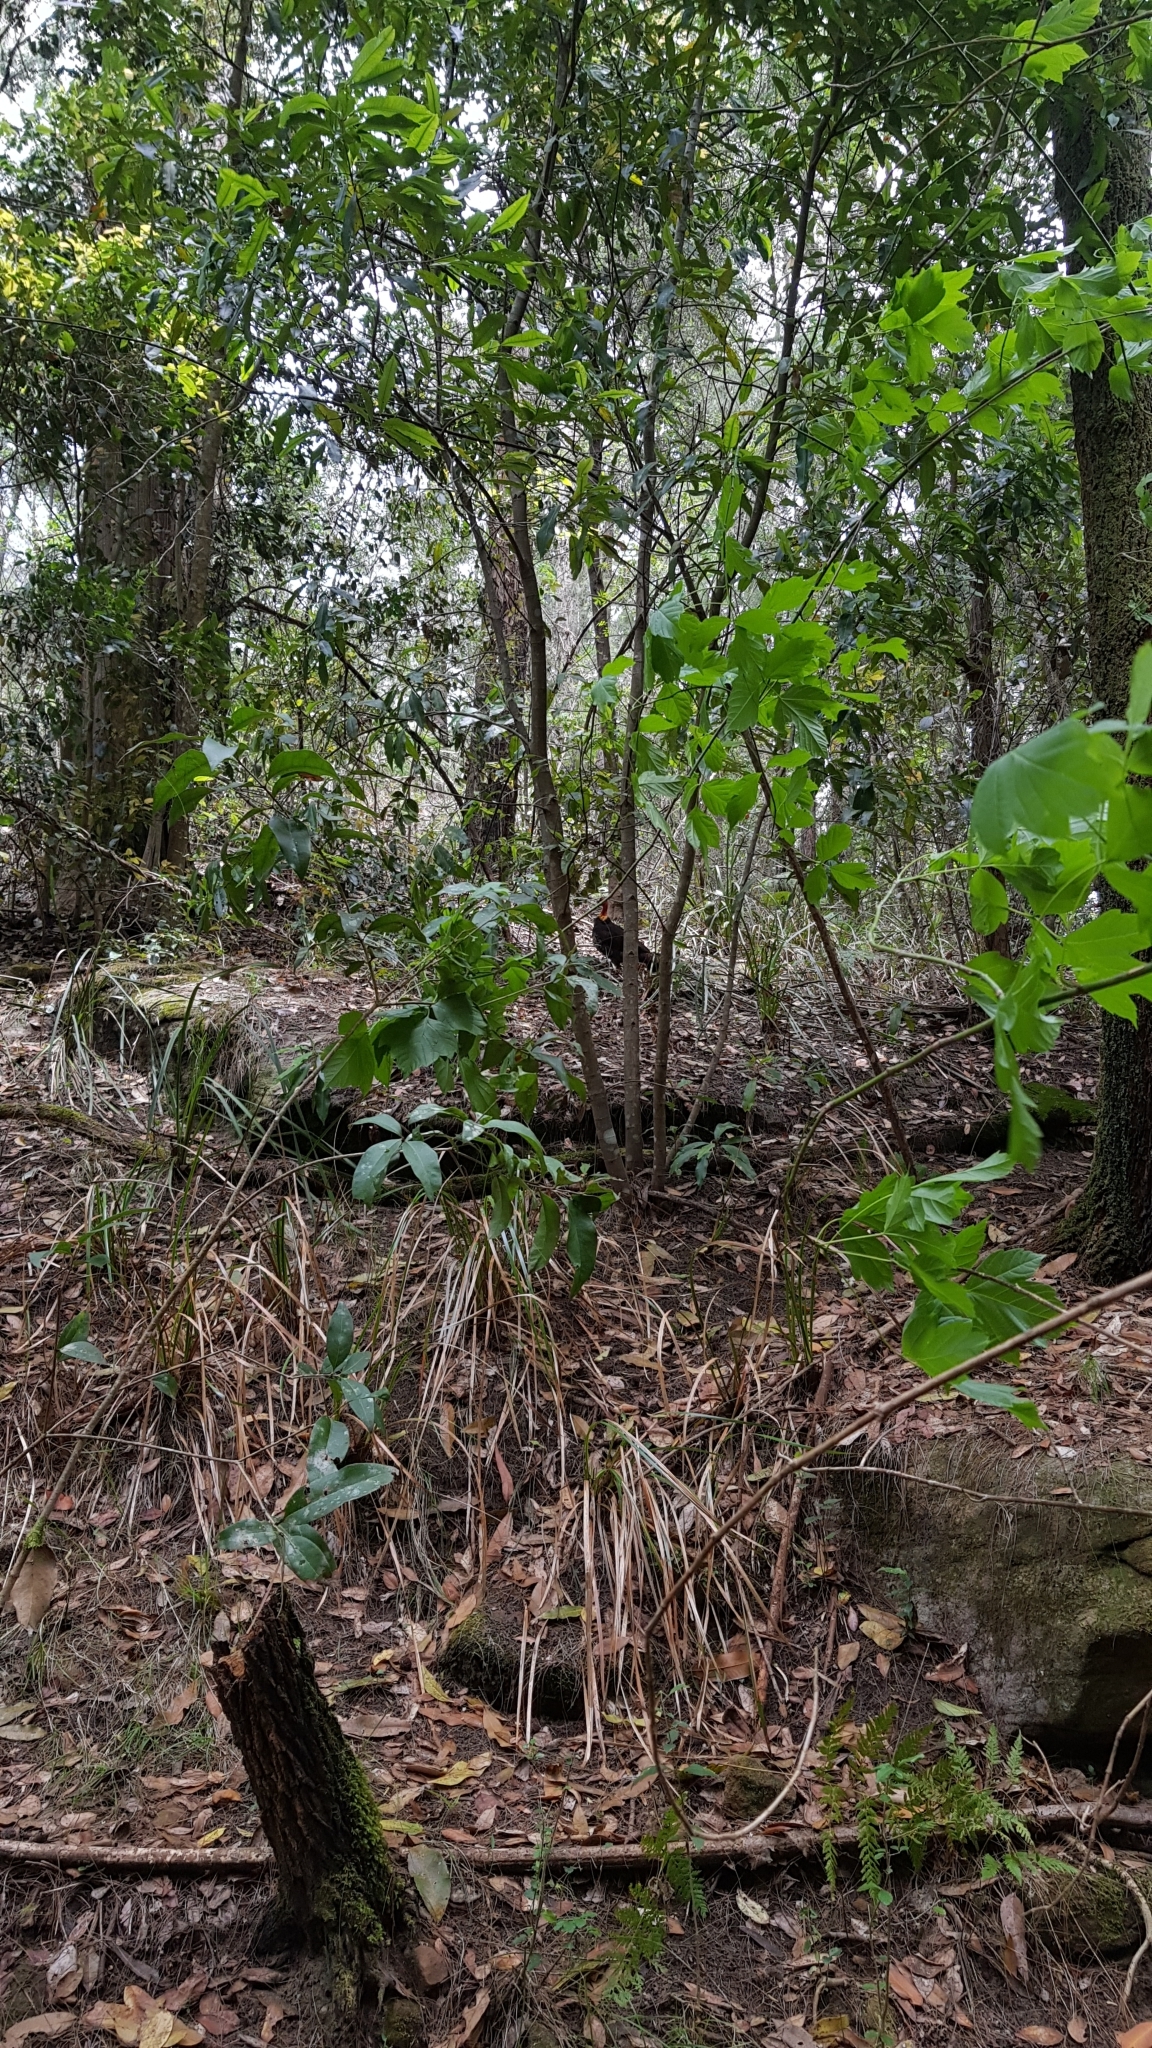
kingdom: Animalia
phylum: Chordata
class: Aves
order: Galliformes
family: Megapodiidae
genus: Alectura
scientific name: Alectura lathami
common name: Australian brushturkey
